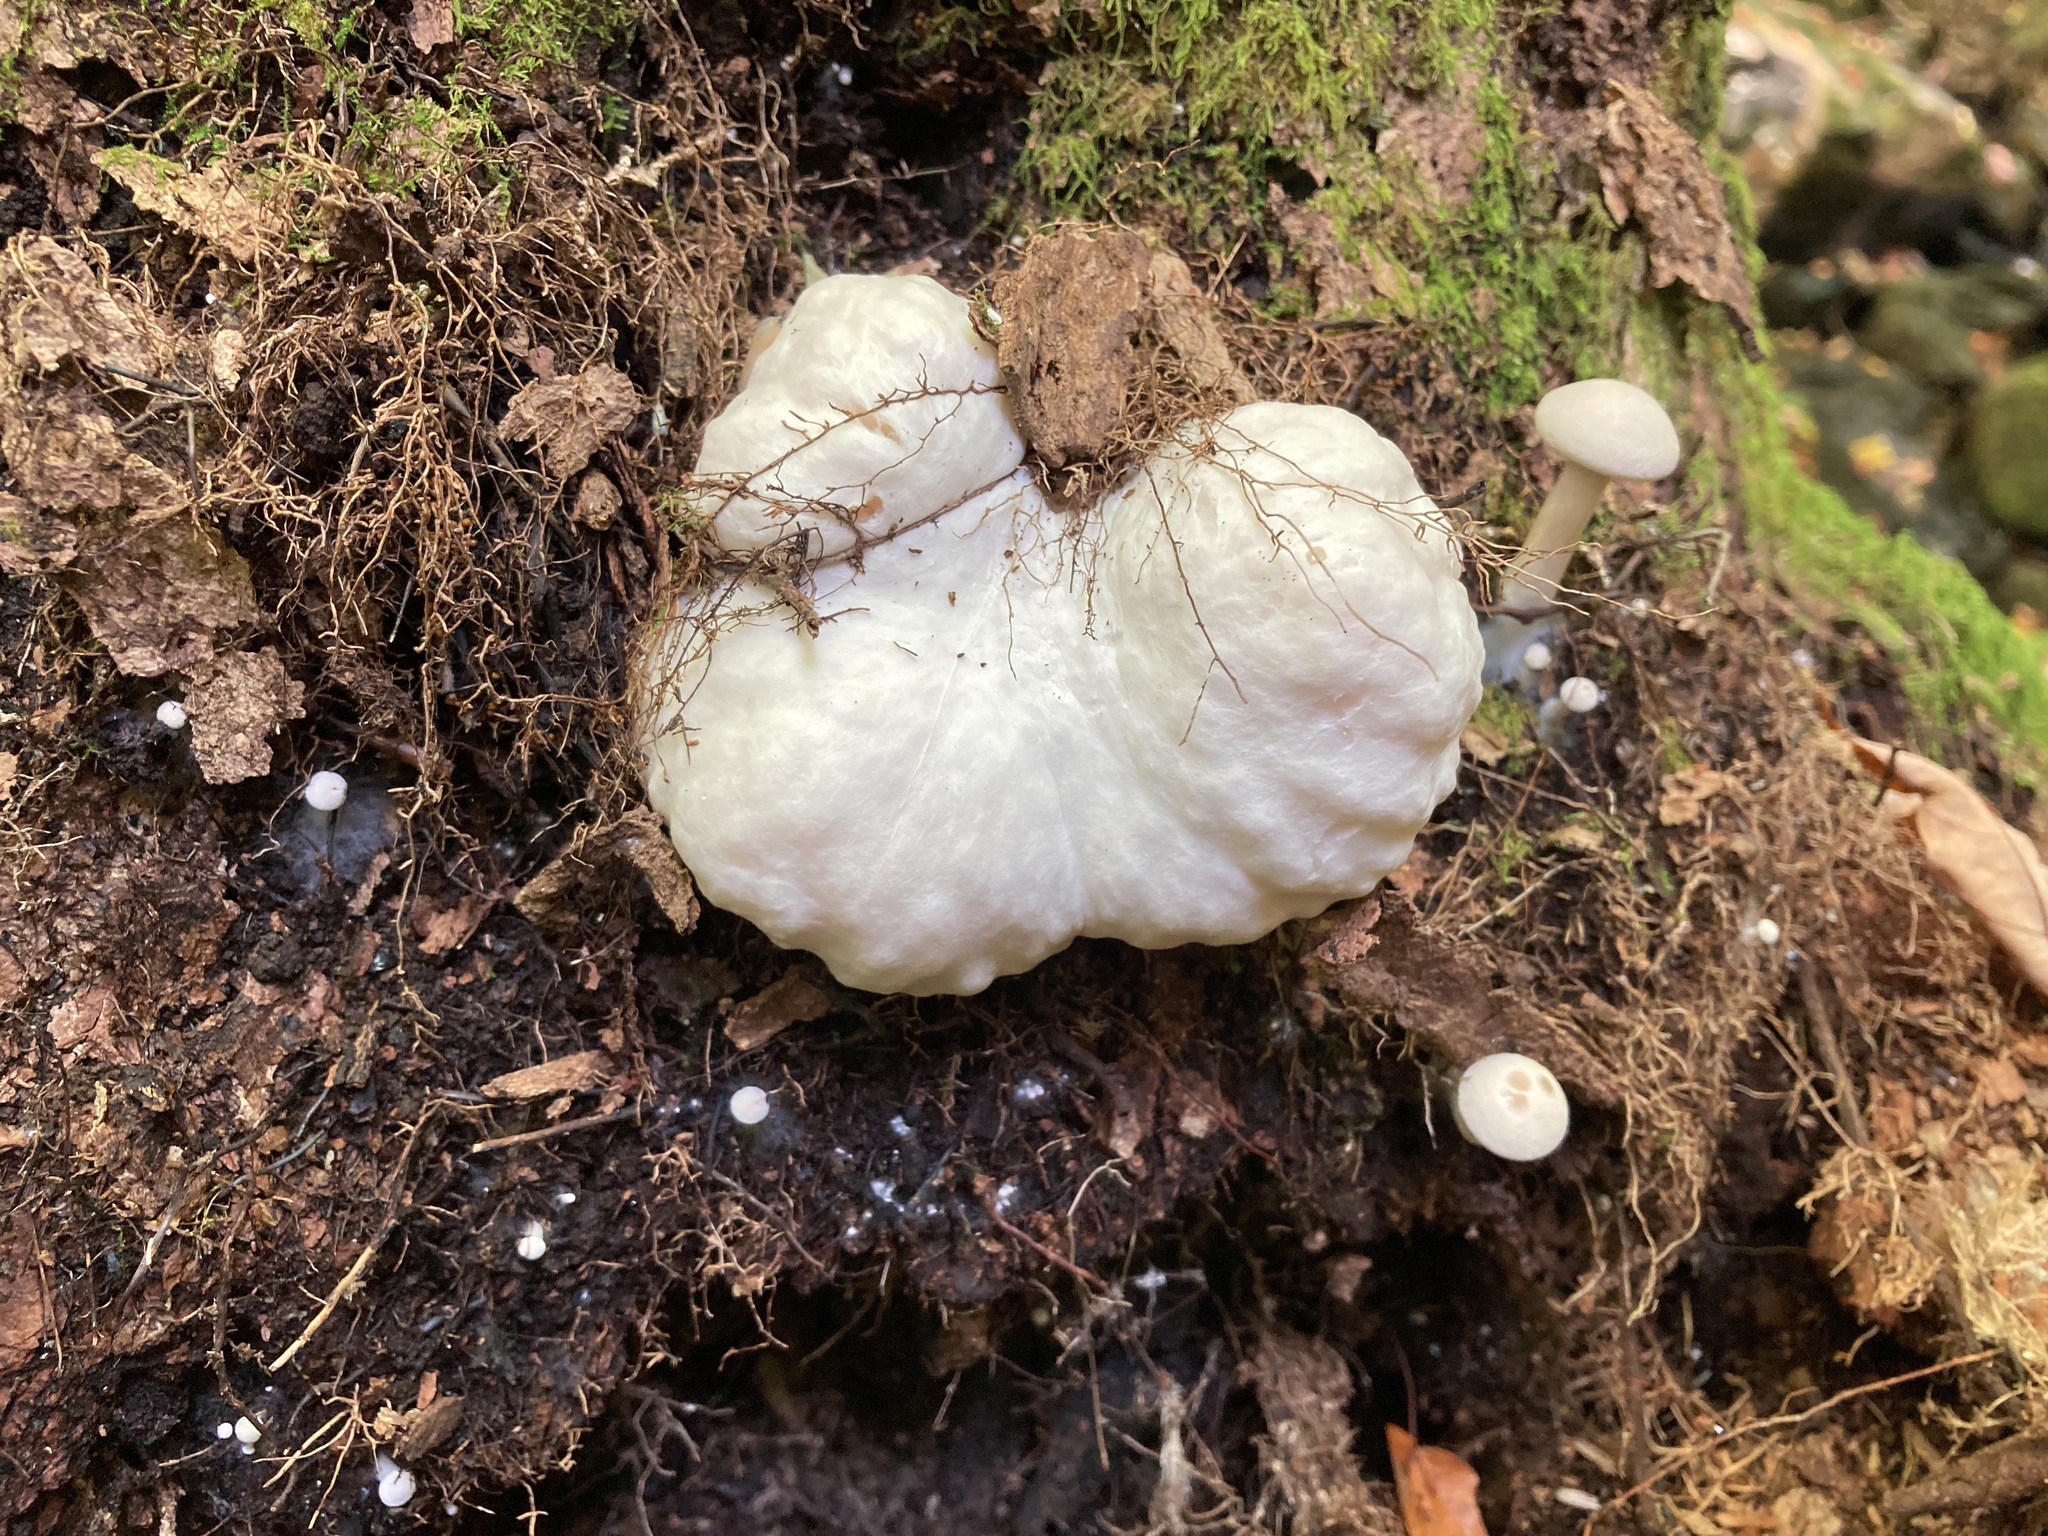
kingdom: Fungi
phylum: Basidiomycota
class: Agaricomycetes
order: Agaricales
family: Entolomataceae
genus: Entoloma
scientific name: Entoloma abortivum
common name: Aborted entoloma
